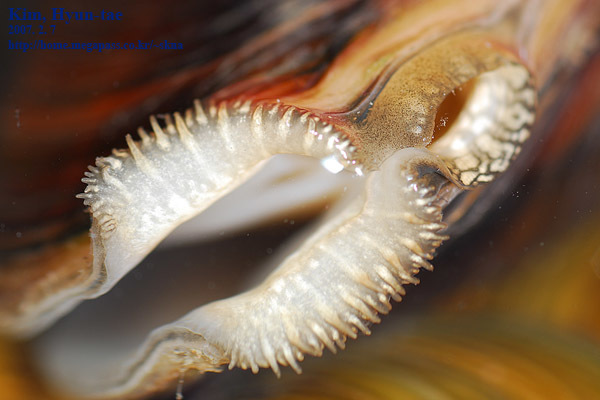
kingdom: Animalia
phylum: Mollusca
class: Bivalvia
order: Unionida
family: Unionidae
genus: Sinanodonta
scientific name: Sinanodonta lauta
